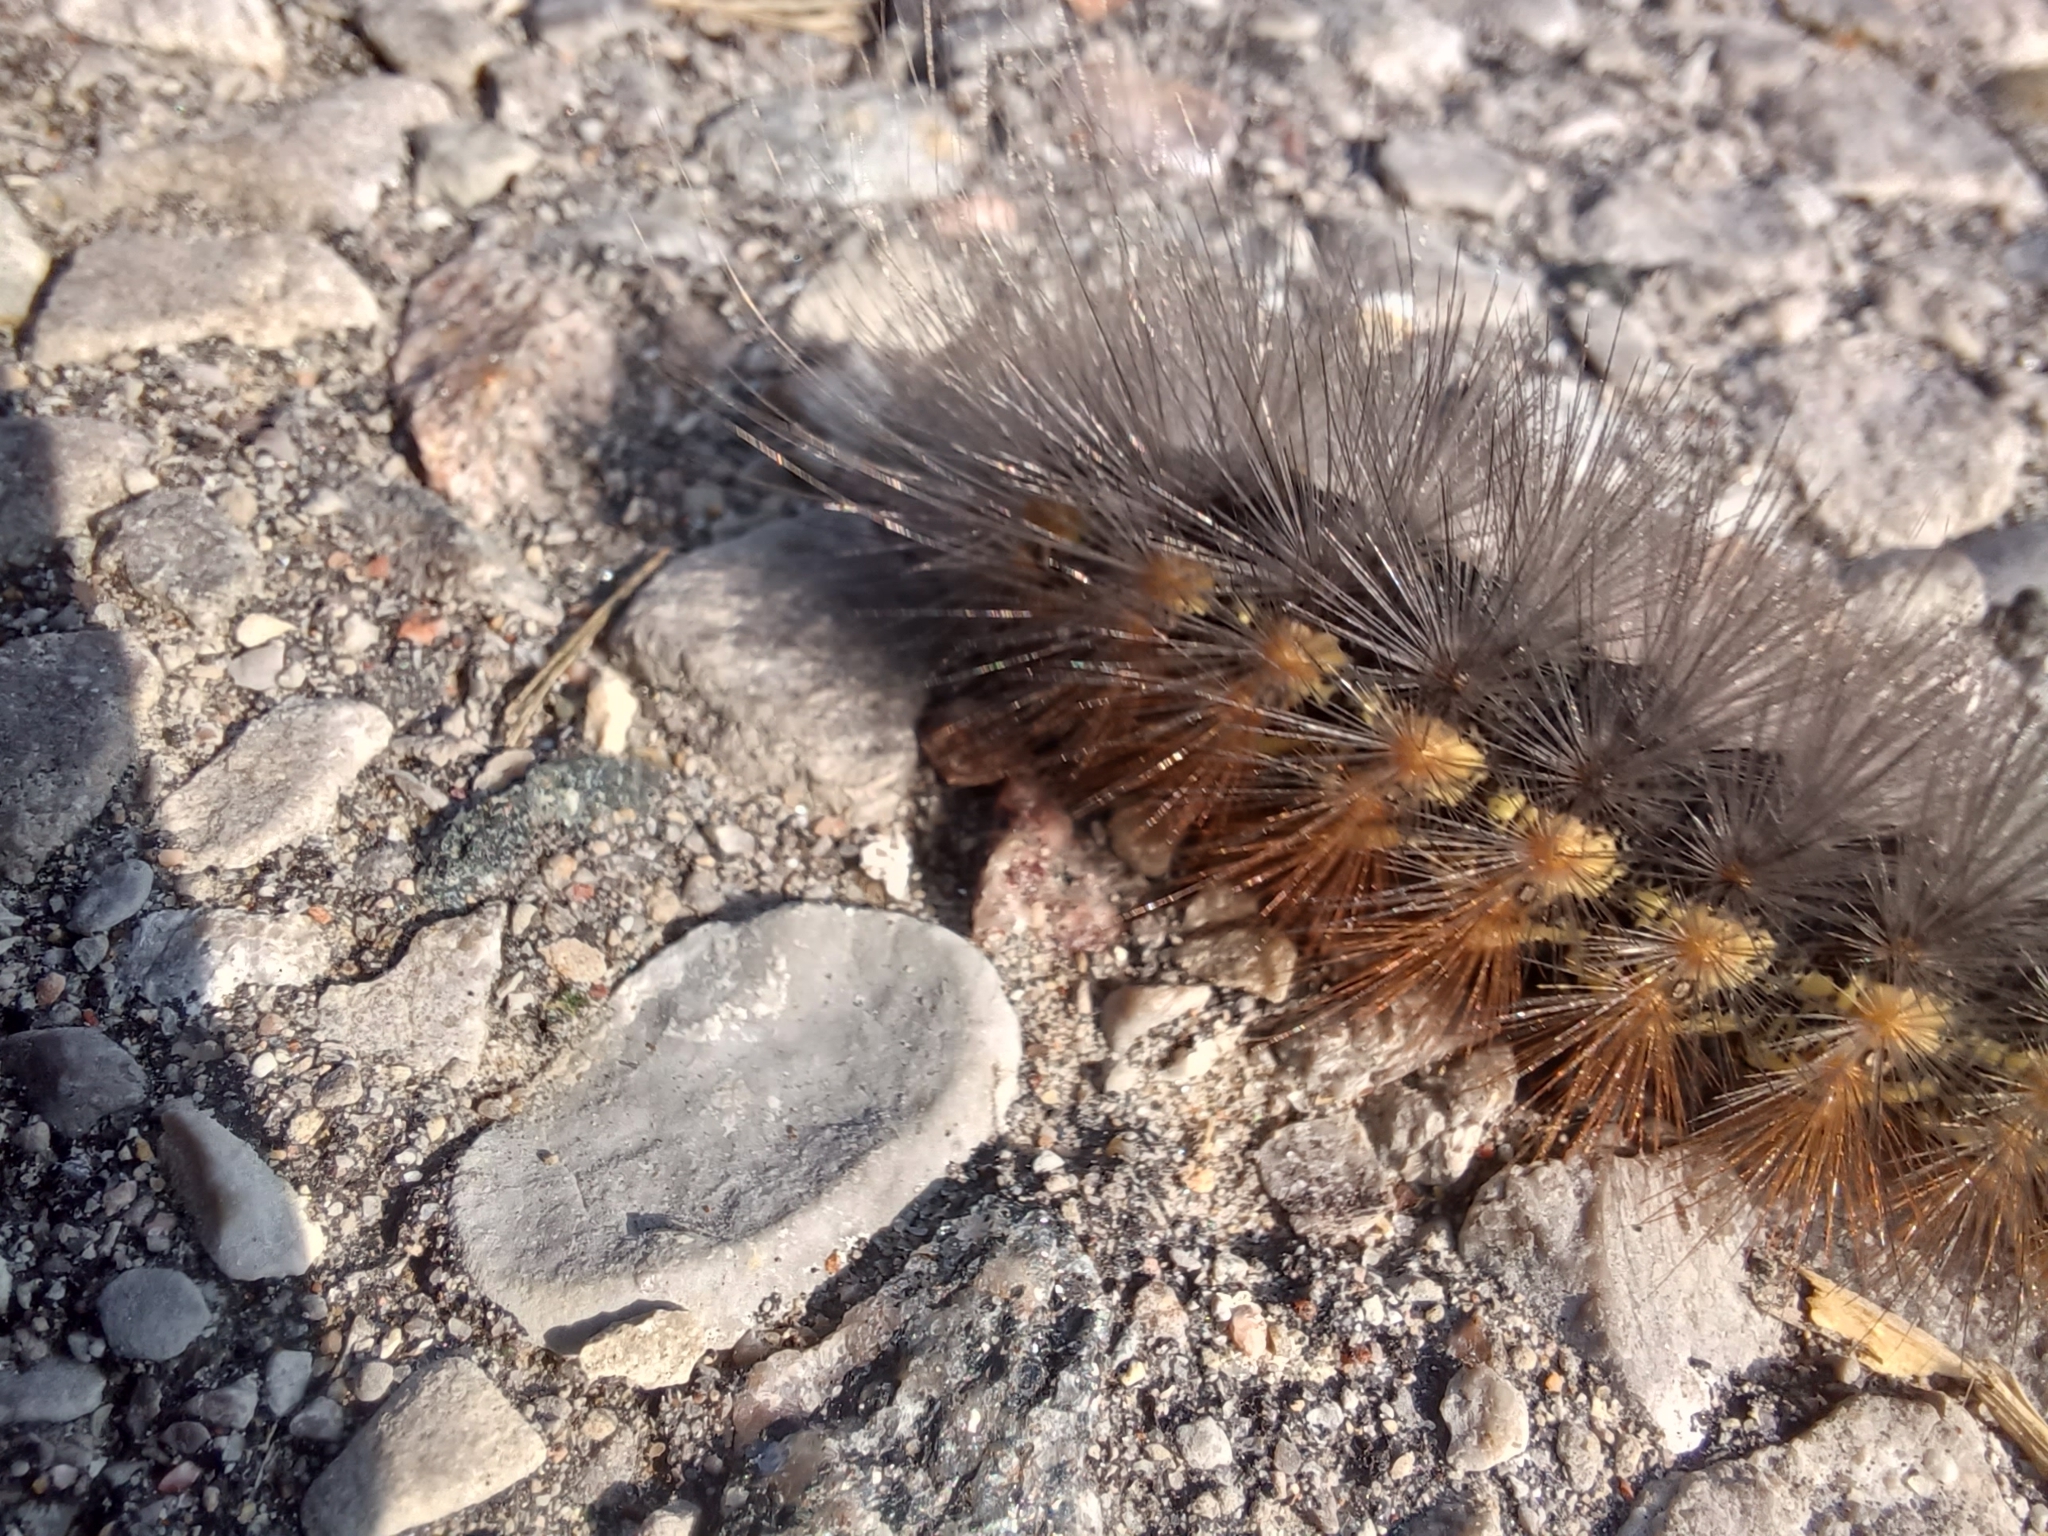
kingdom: Animalia
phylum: Arthropoda
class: Insecta
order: Lepidoptera
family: Erebidae
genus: Estigmene
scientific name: Estigmene acrea
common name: Salt marsh moth
